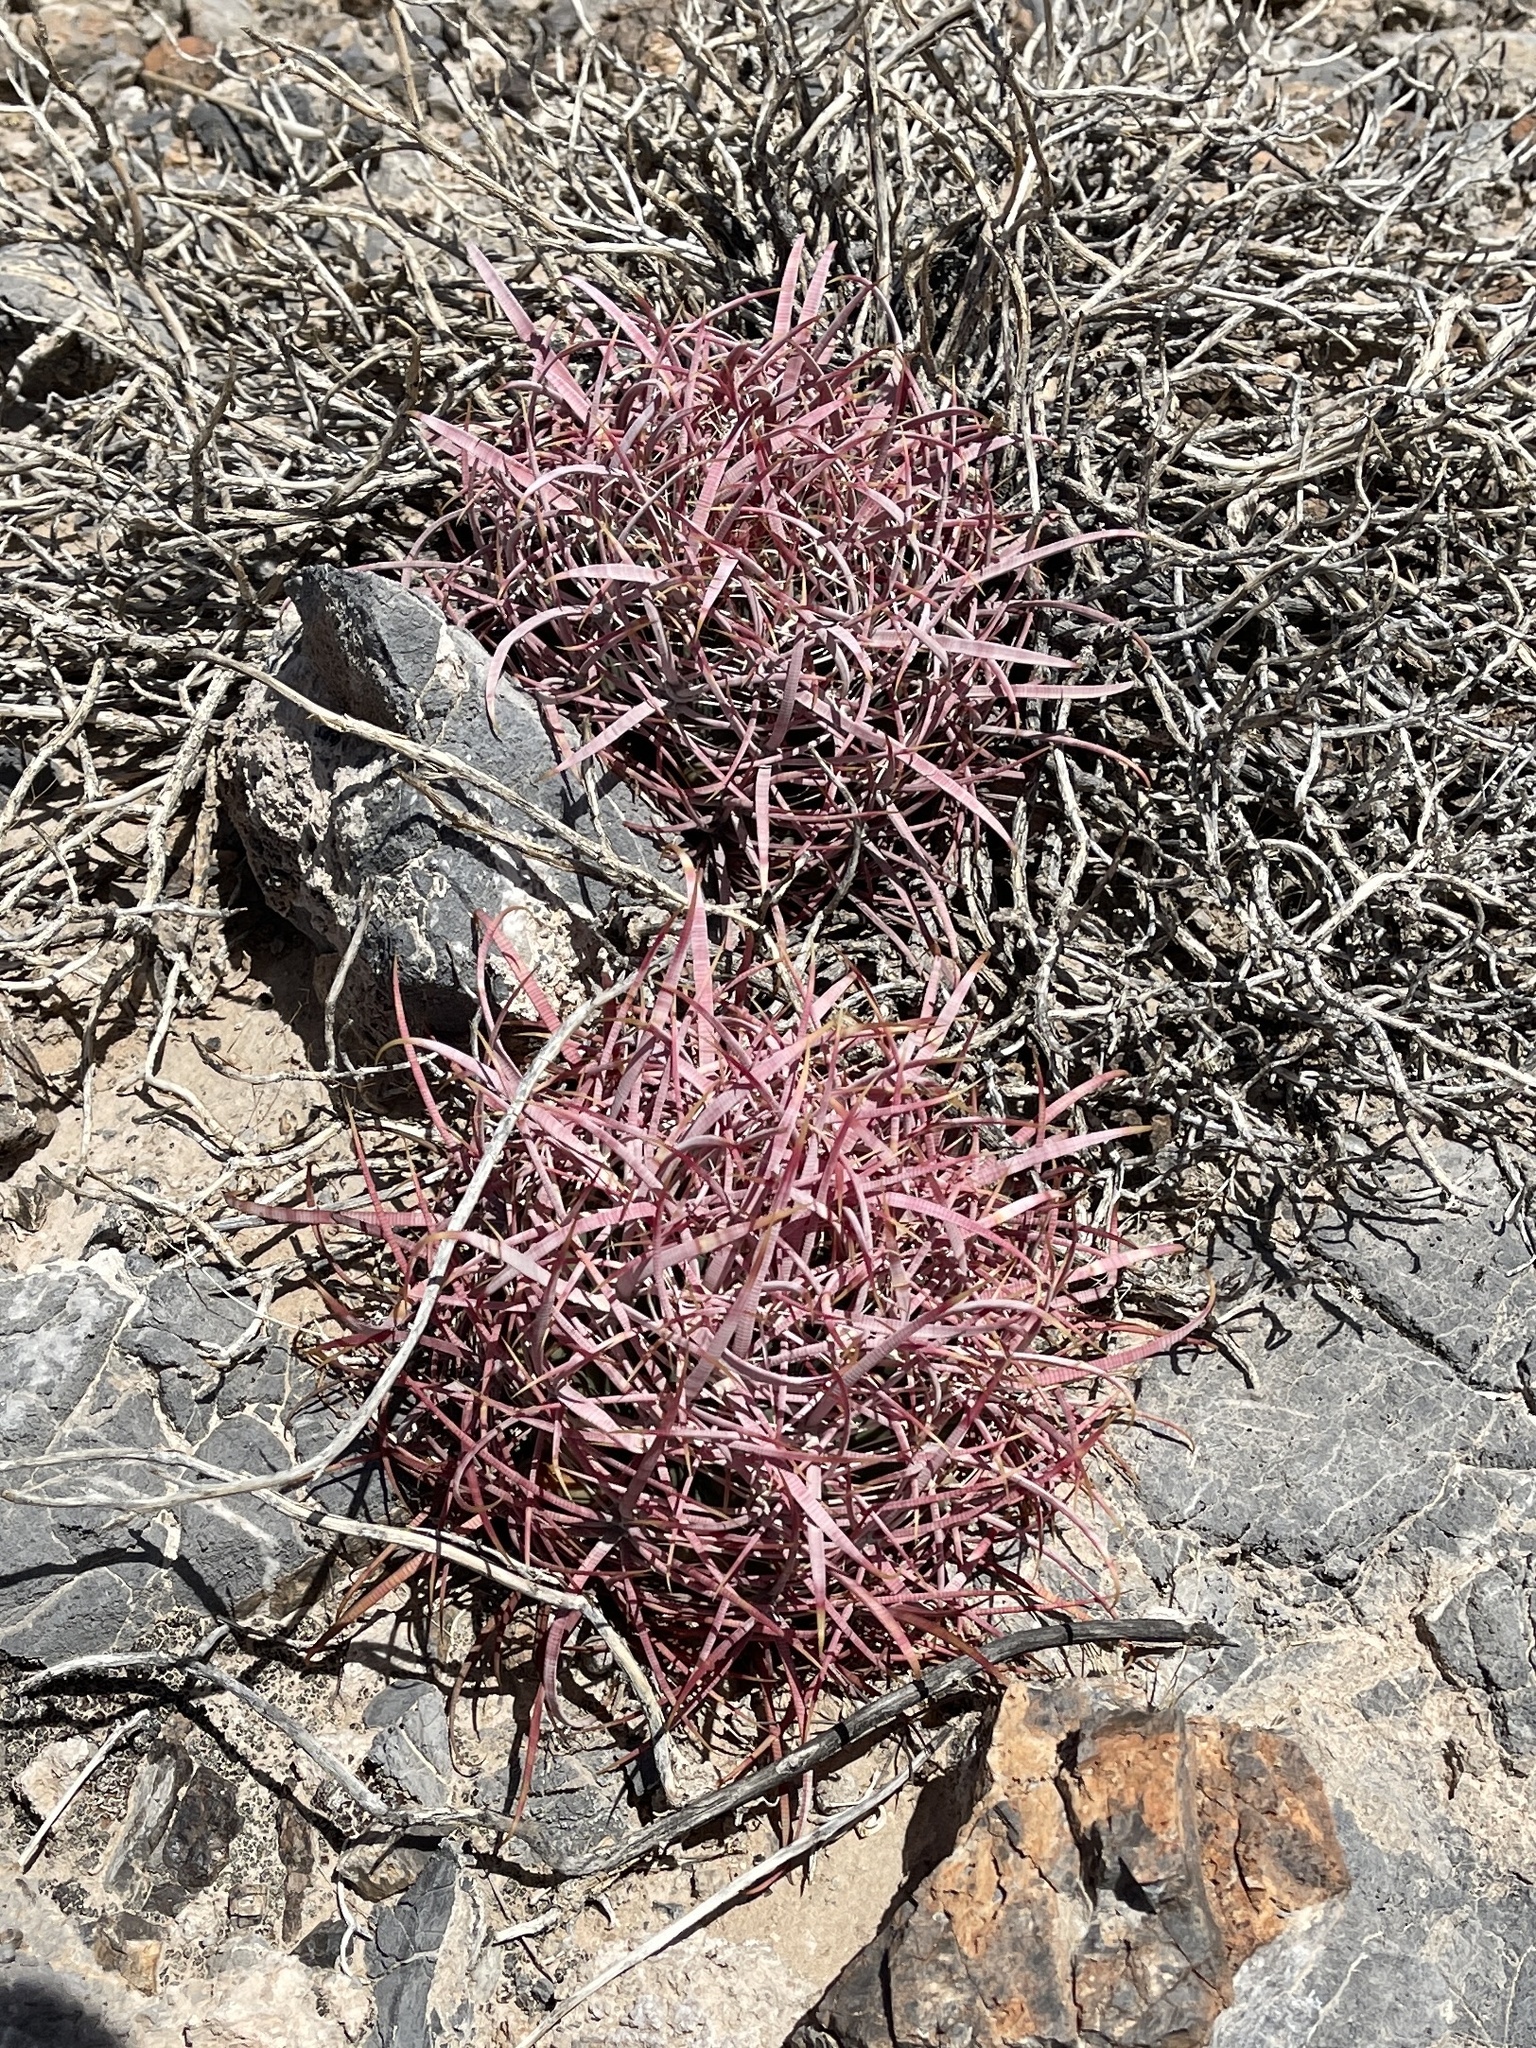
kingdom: Plantae
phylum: Tracheophyta
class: Magnoliopsida
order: Caryophyllales
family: Cactaceae
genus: Ferocactus
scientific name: Ferocactus cylindraceus
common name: California barrel cactus
